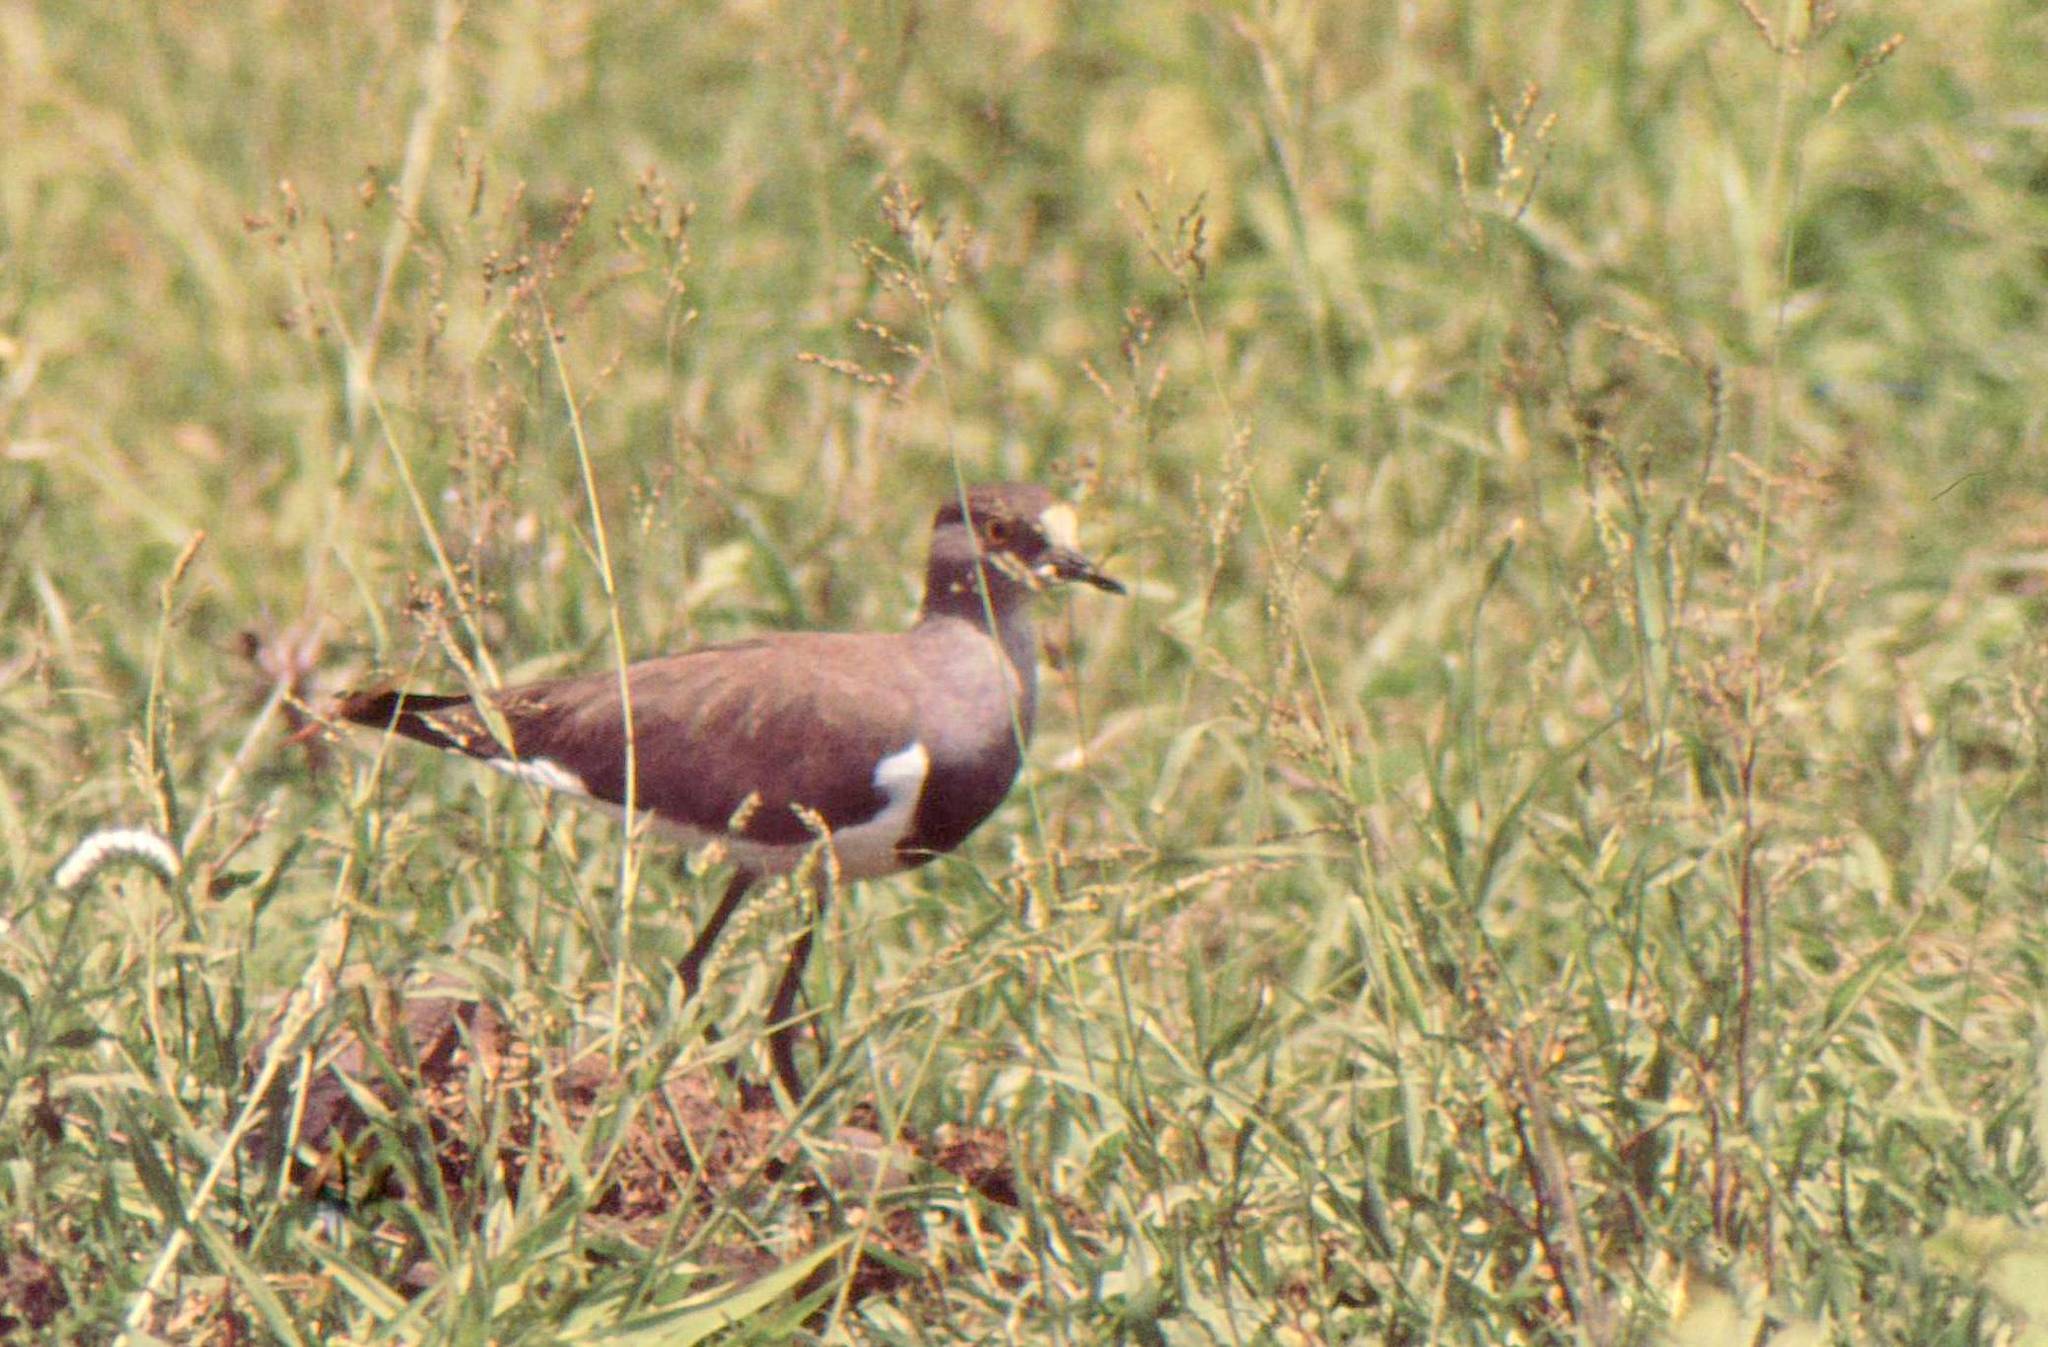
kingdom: Animalia
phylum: Chordata
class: Aves
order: Charadriiformes
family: Charadriidae
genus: Vanellus
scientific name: Vanellus lugubris
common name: Senegal lapwing
